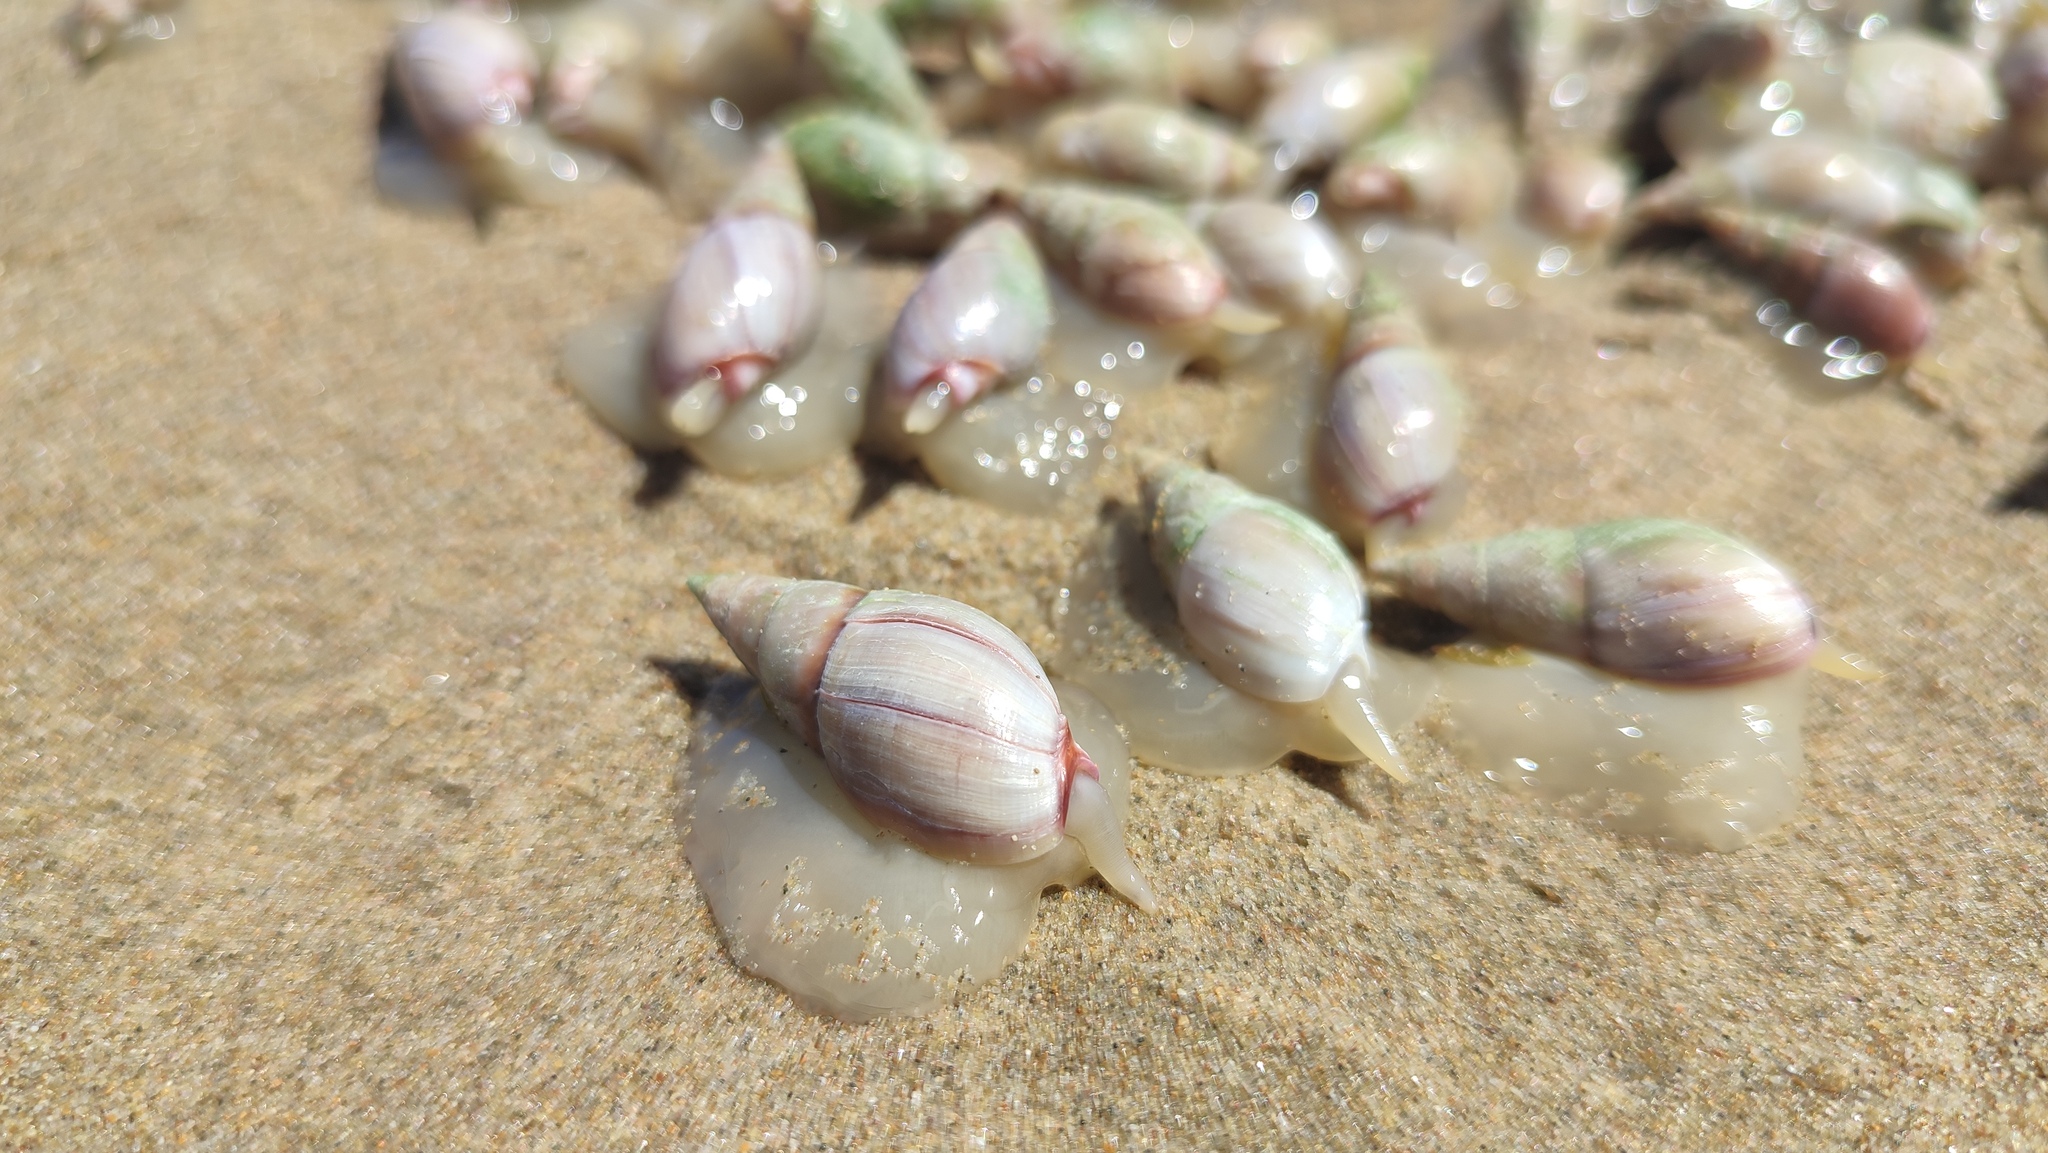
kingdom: Animalia
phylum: Mollusca
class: Gastropoda
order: Neogastropoda
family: Nassariidae
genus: Bullia
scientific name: Bullia rhodostoma
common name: Smooth plough shell
